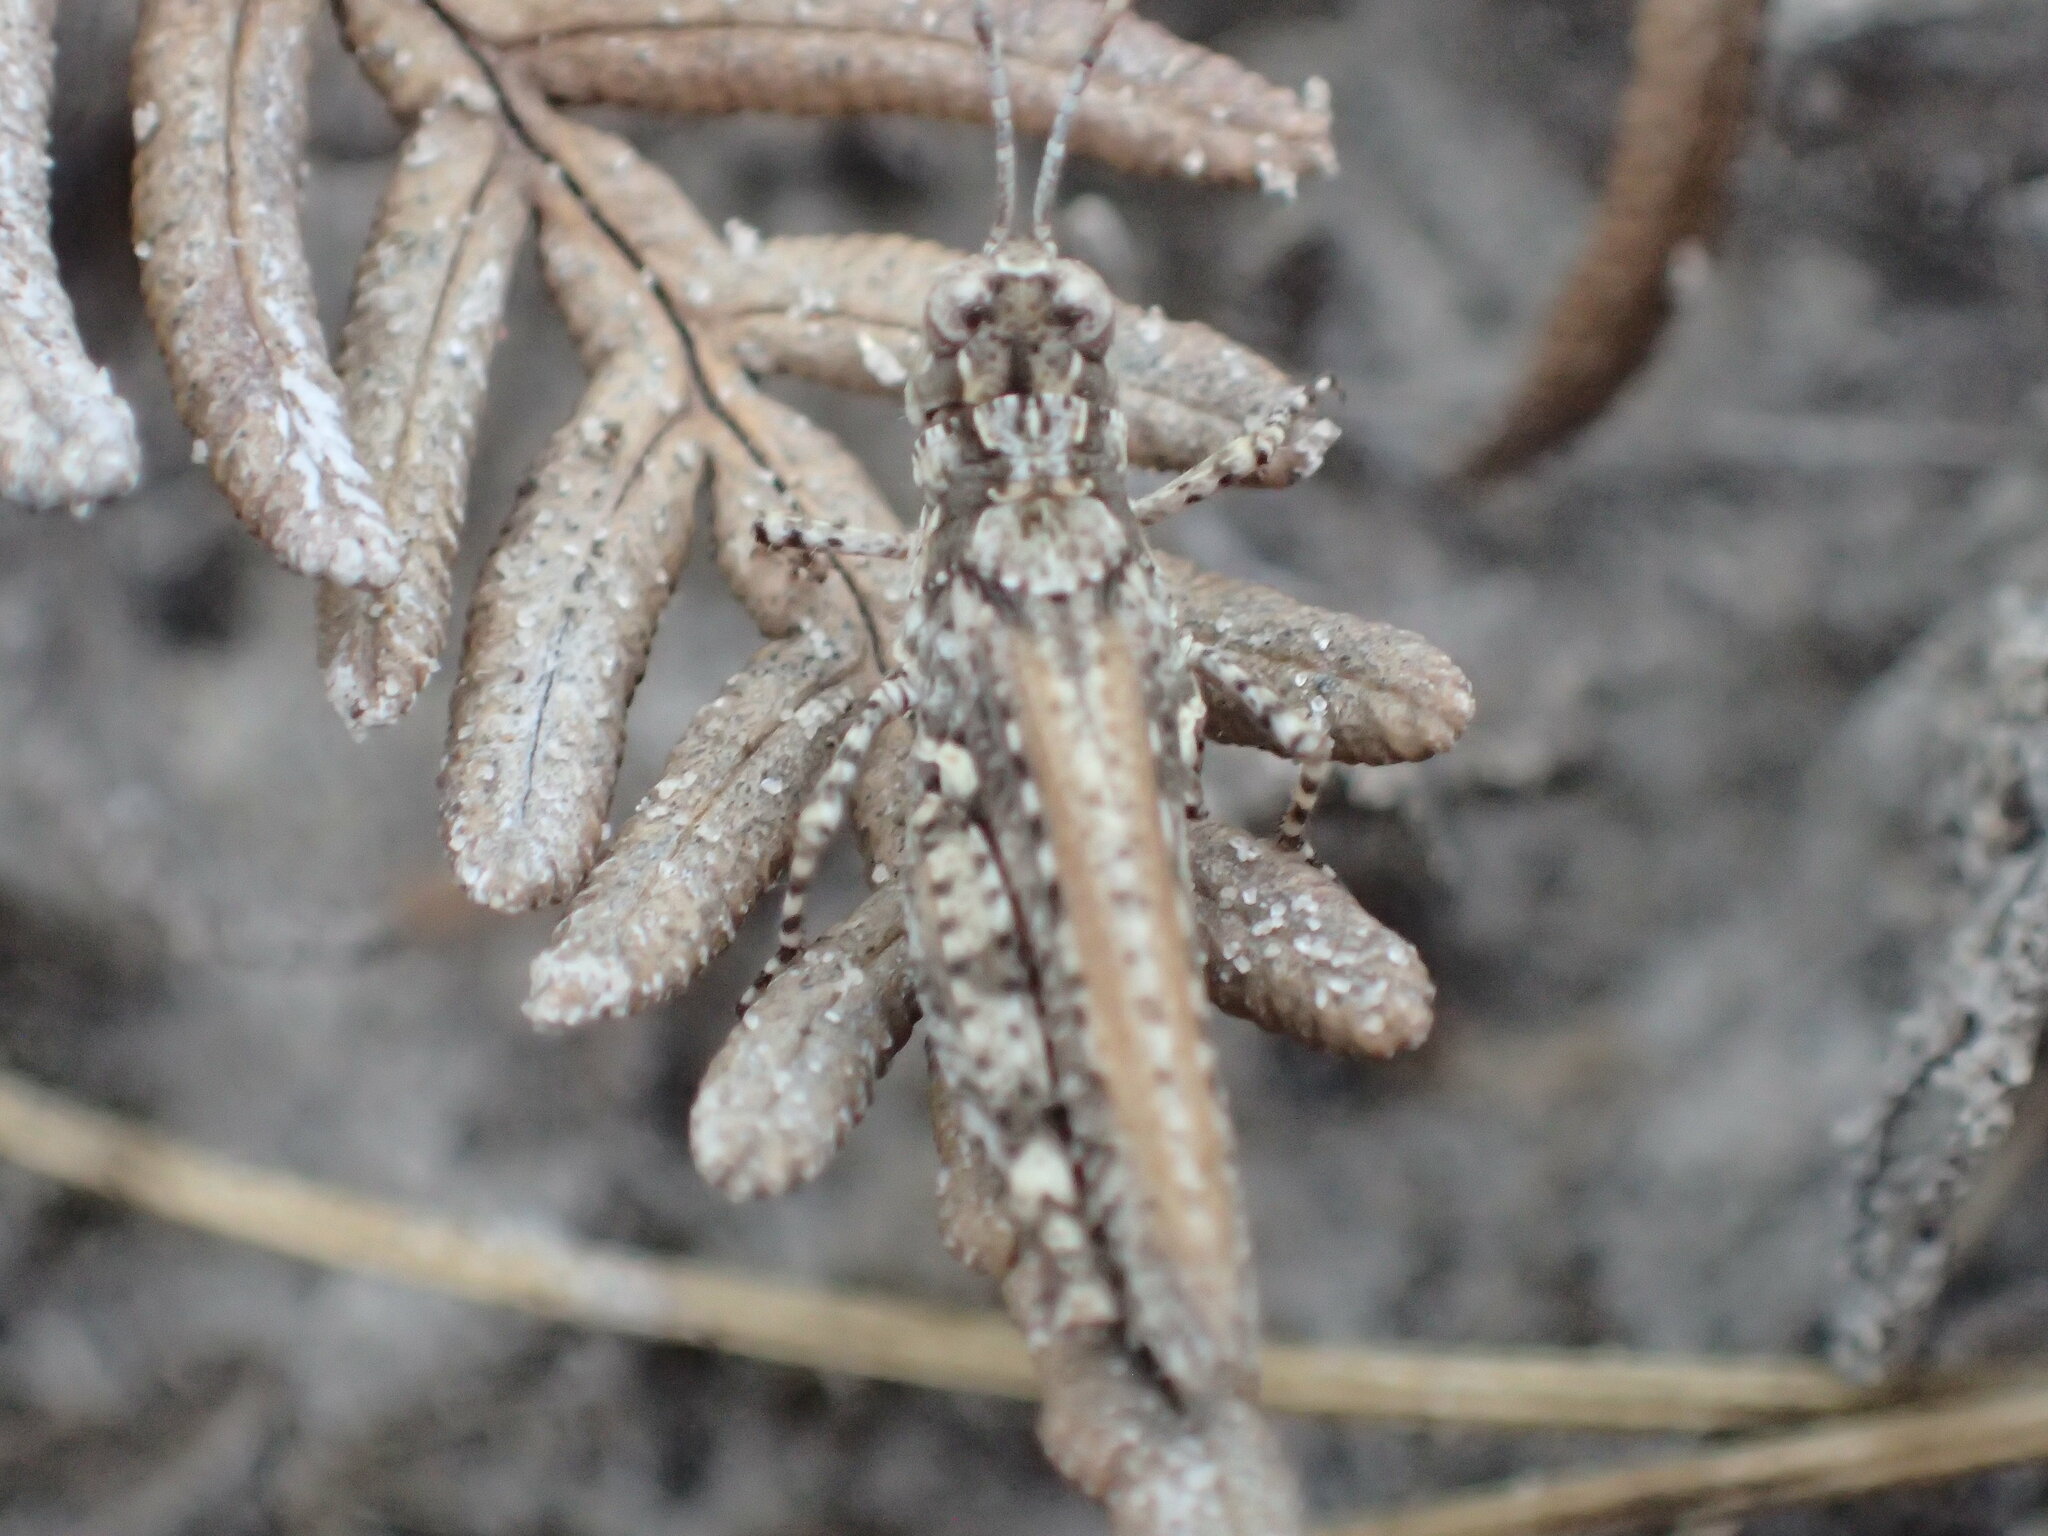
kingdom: Animalia
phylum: Arthropoda
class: Insecta
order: Orthoptera
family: Acrididae
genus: Exarna
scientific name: Exarna includens
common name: Red-legged exarna
